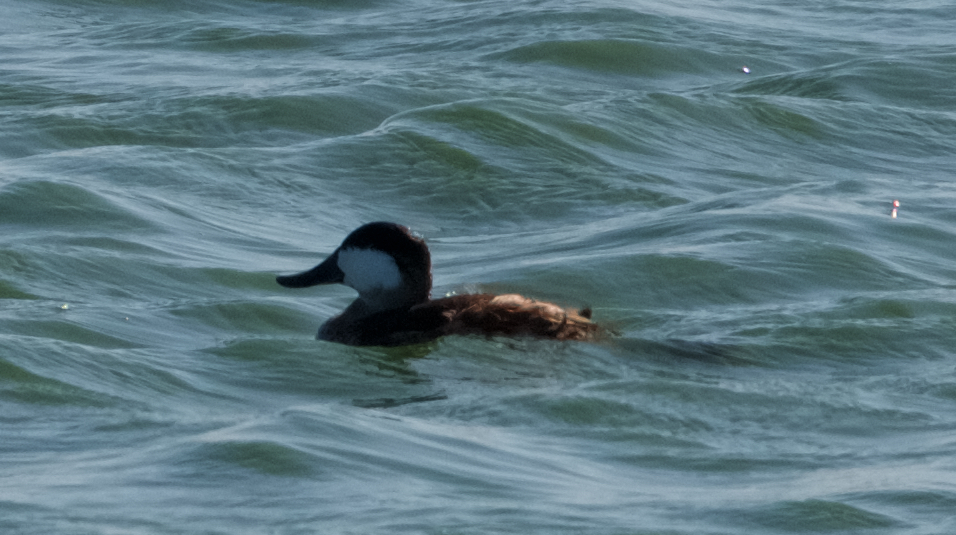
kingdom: Animalia
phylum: Chordata
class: Aves
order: Anseriformes
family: Anatidae
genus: Oxyura
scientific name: Oxyura jamaicensis
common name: Ruddy duck
